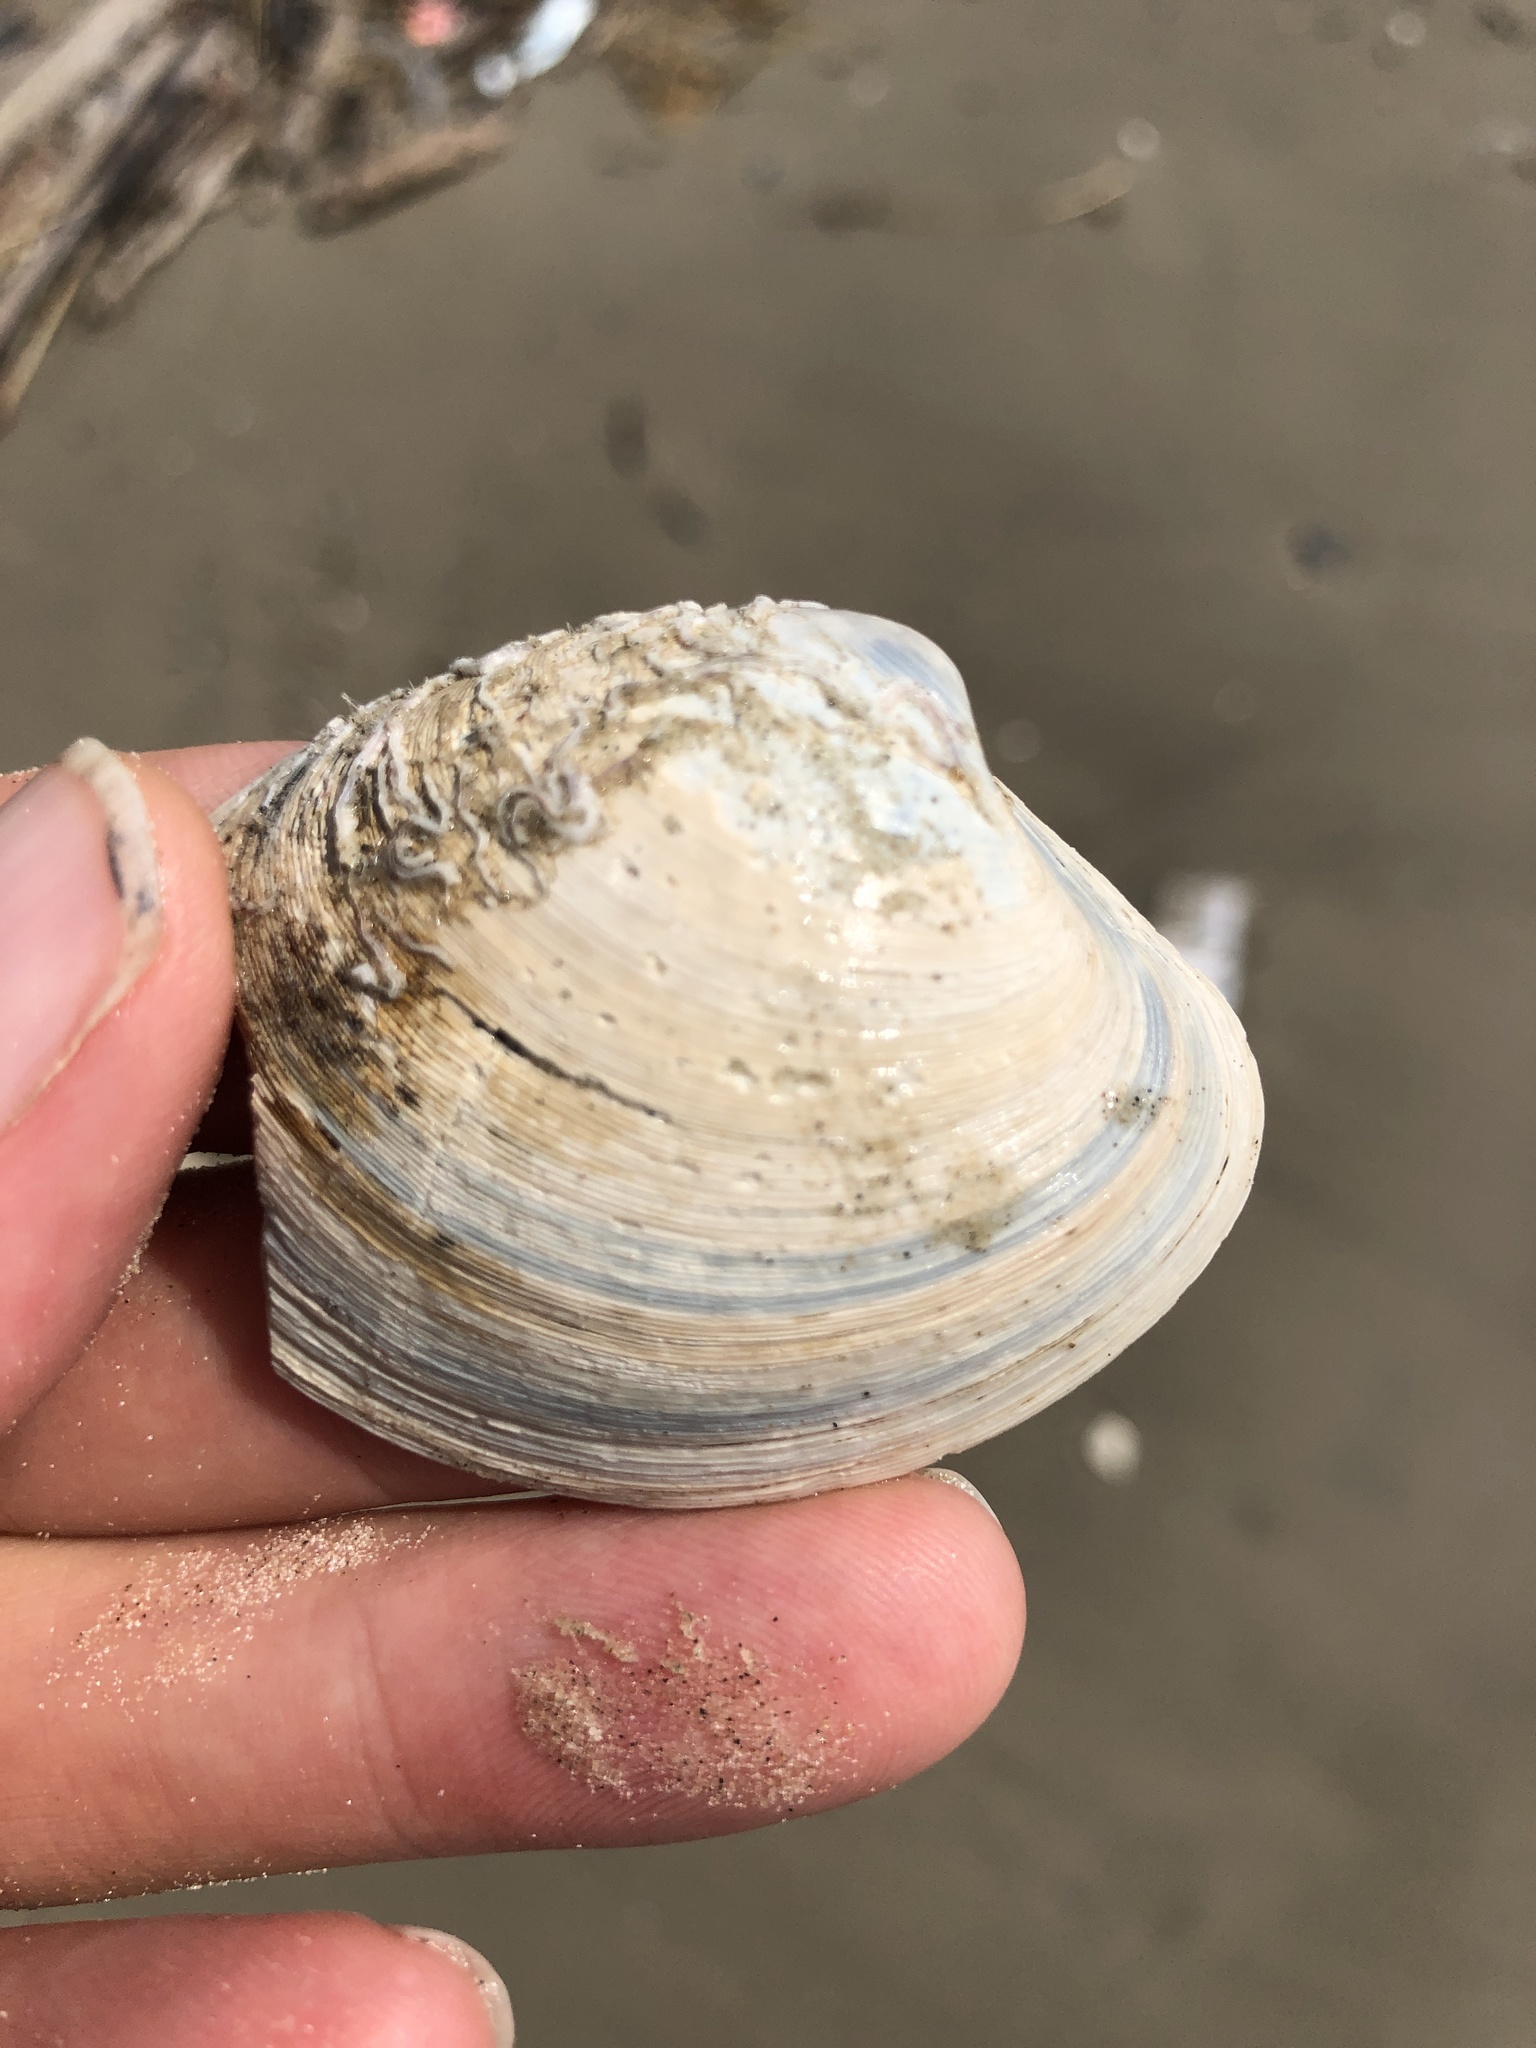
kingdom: Animalia
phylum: Mollusca
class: Bivalvia
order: Venerida
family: Veneridae
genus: Agriopoma
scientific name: Agriopoma texasianum
